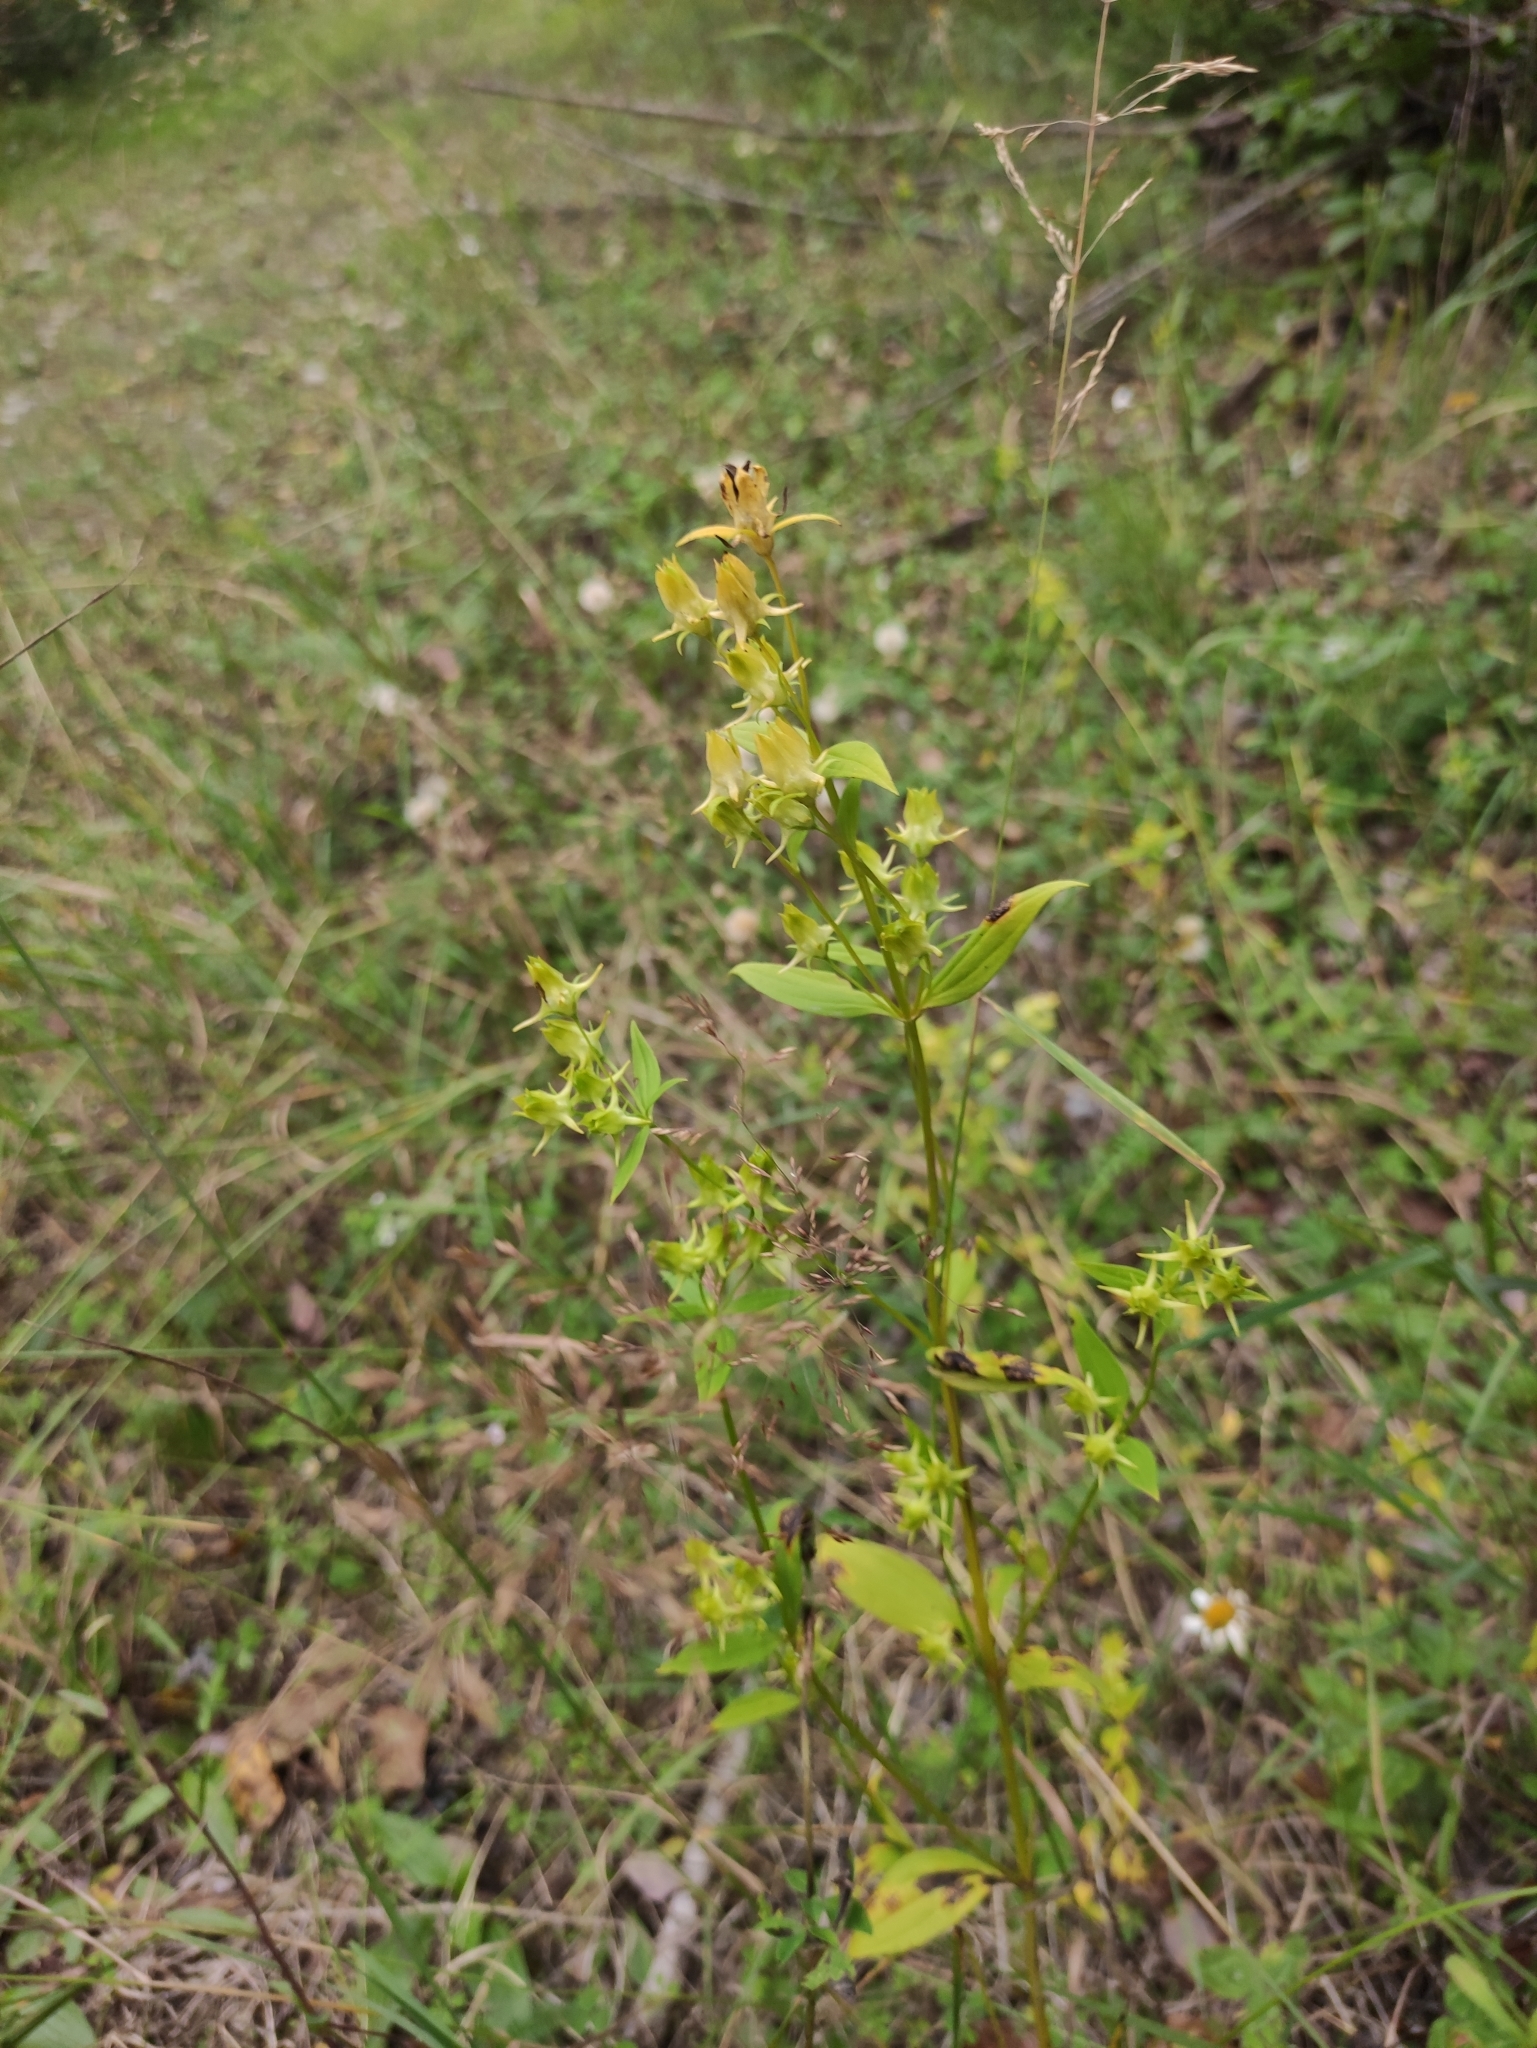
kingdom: Plantae
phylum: Tracheophyta
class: Magnoliopsida
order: Gentianales
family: Gentianaceae
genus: Halenia
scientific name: Halenia corniculata
